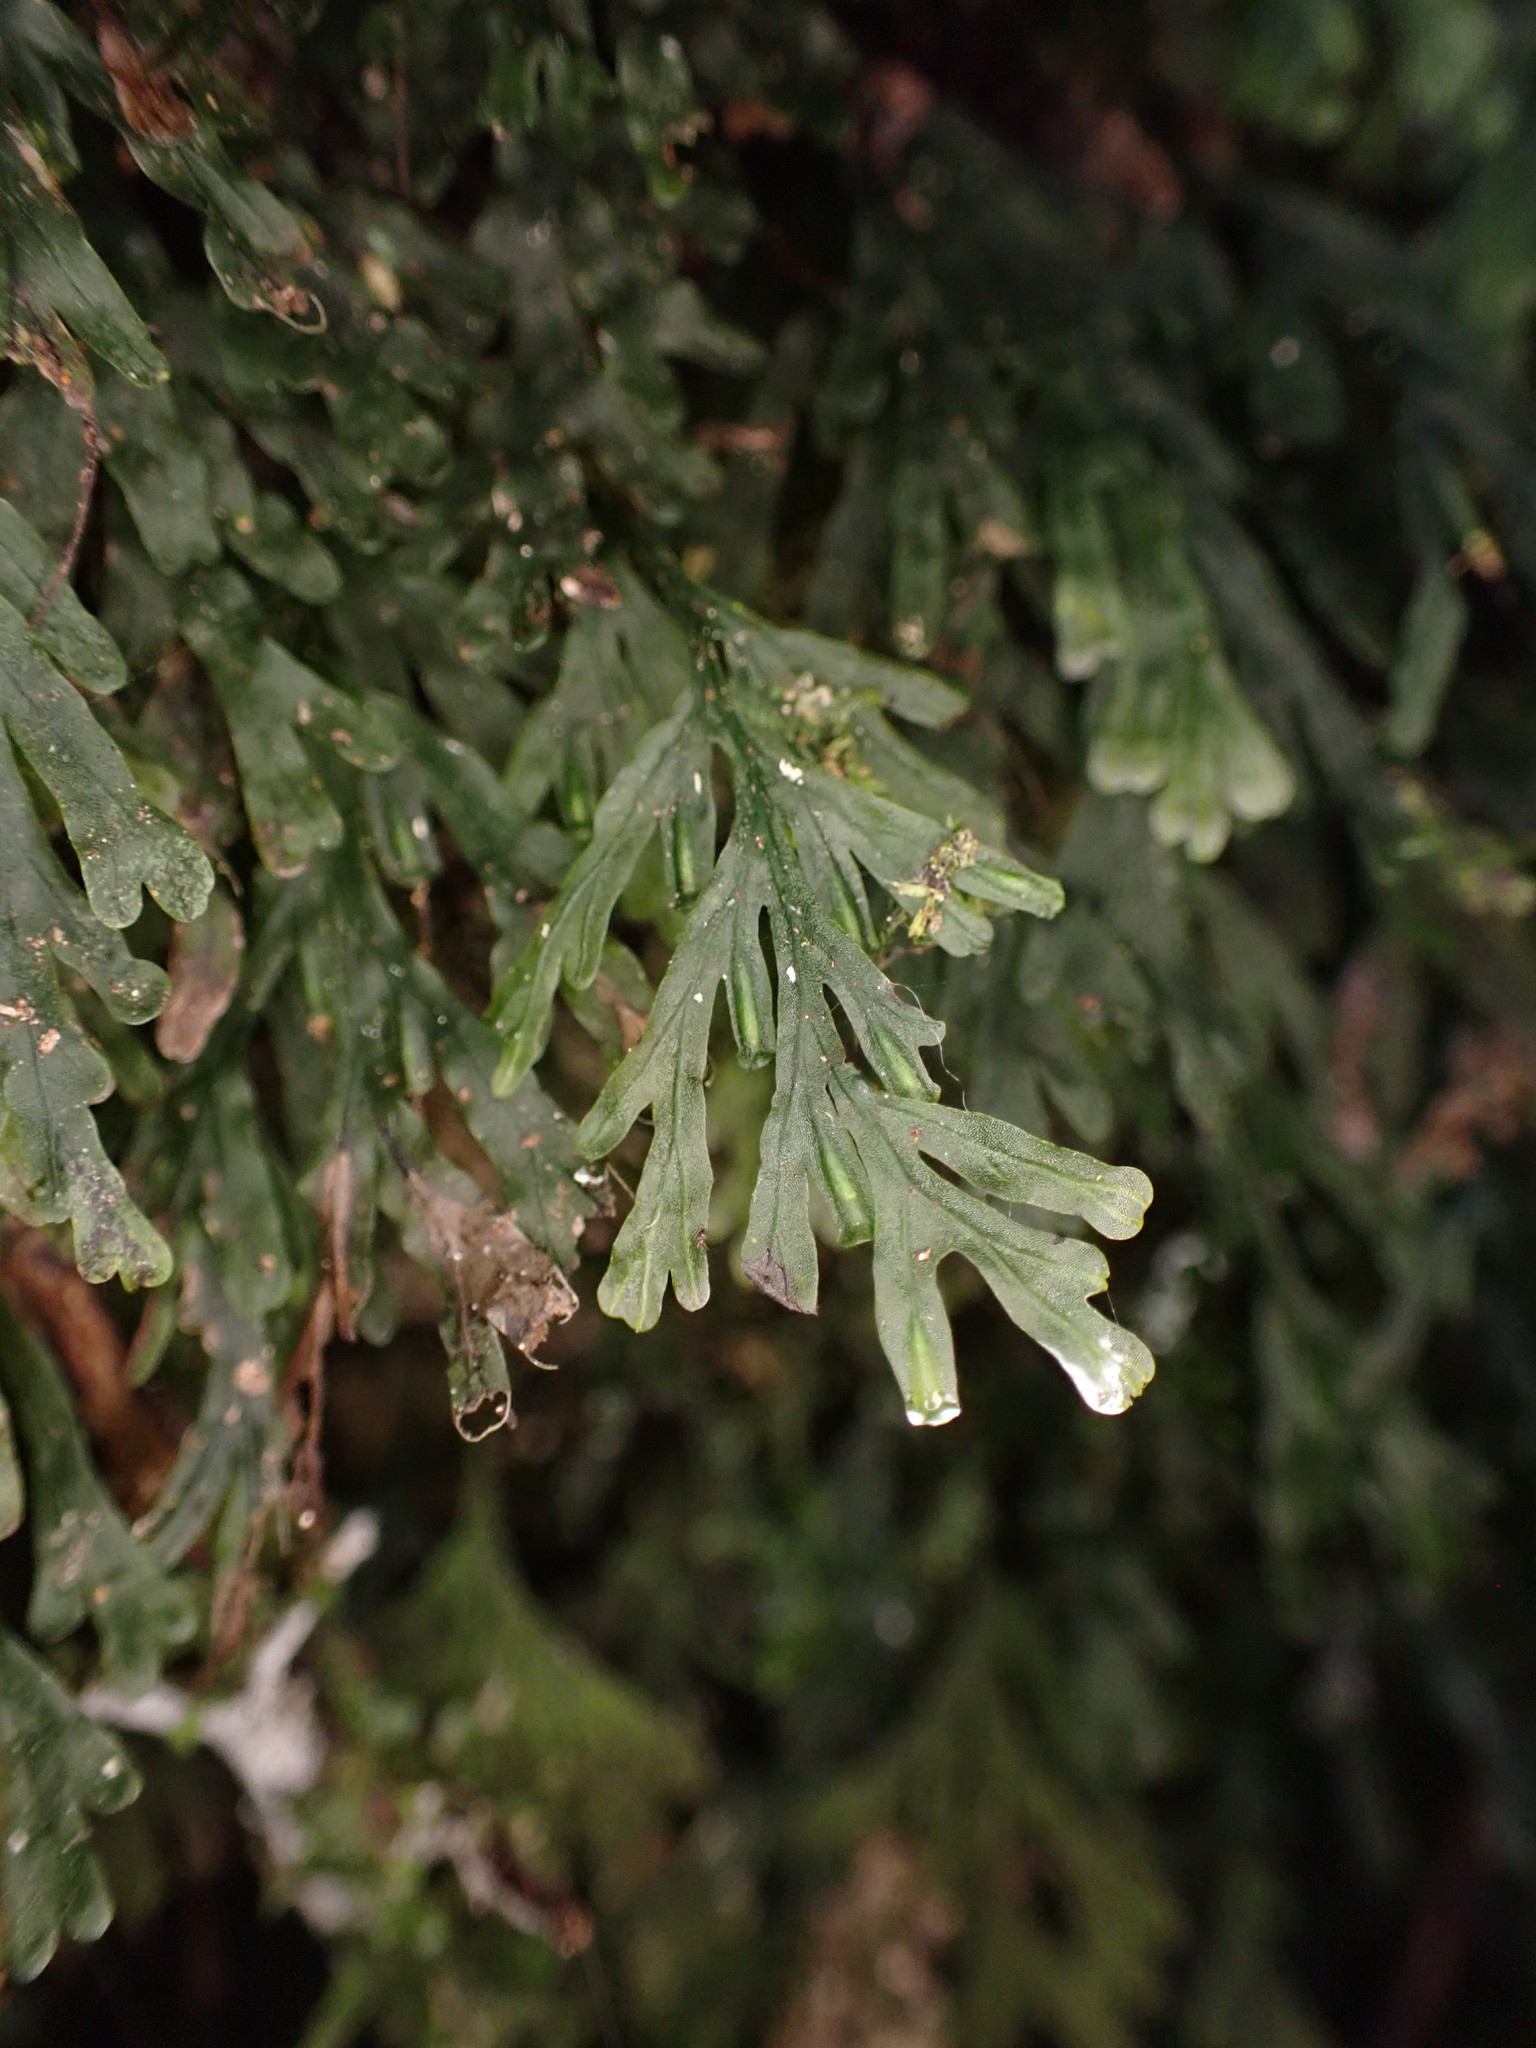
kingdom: Plantae
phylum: Tracheophyta
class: Polypodiopsida
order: Hymenophyllales
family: Hymenophyllaceae
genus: Polyphlebium
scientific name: Polyphlebium endlicherianum
